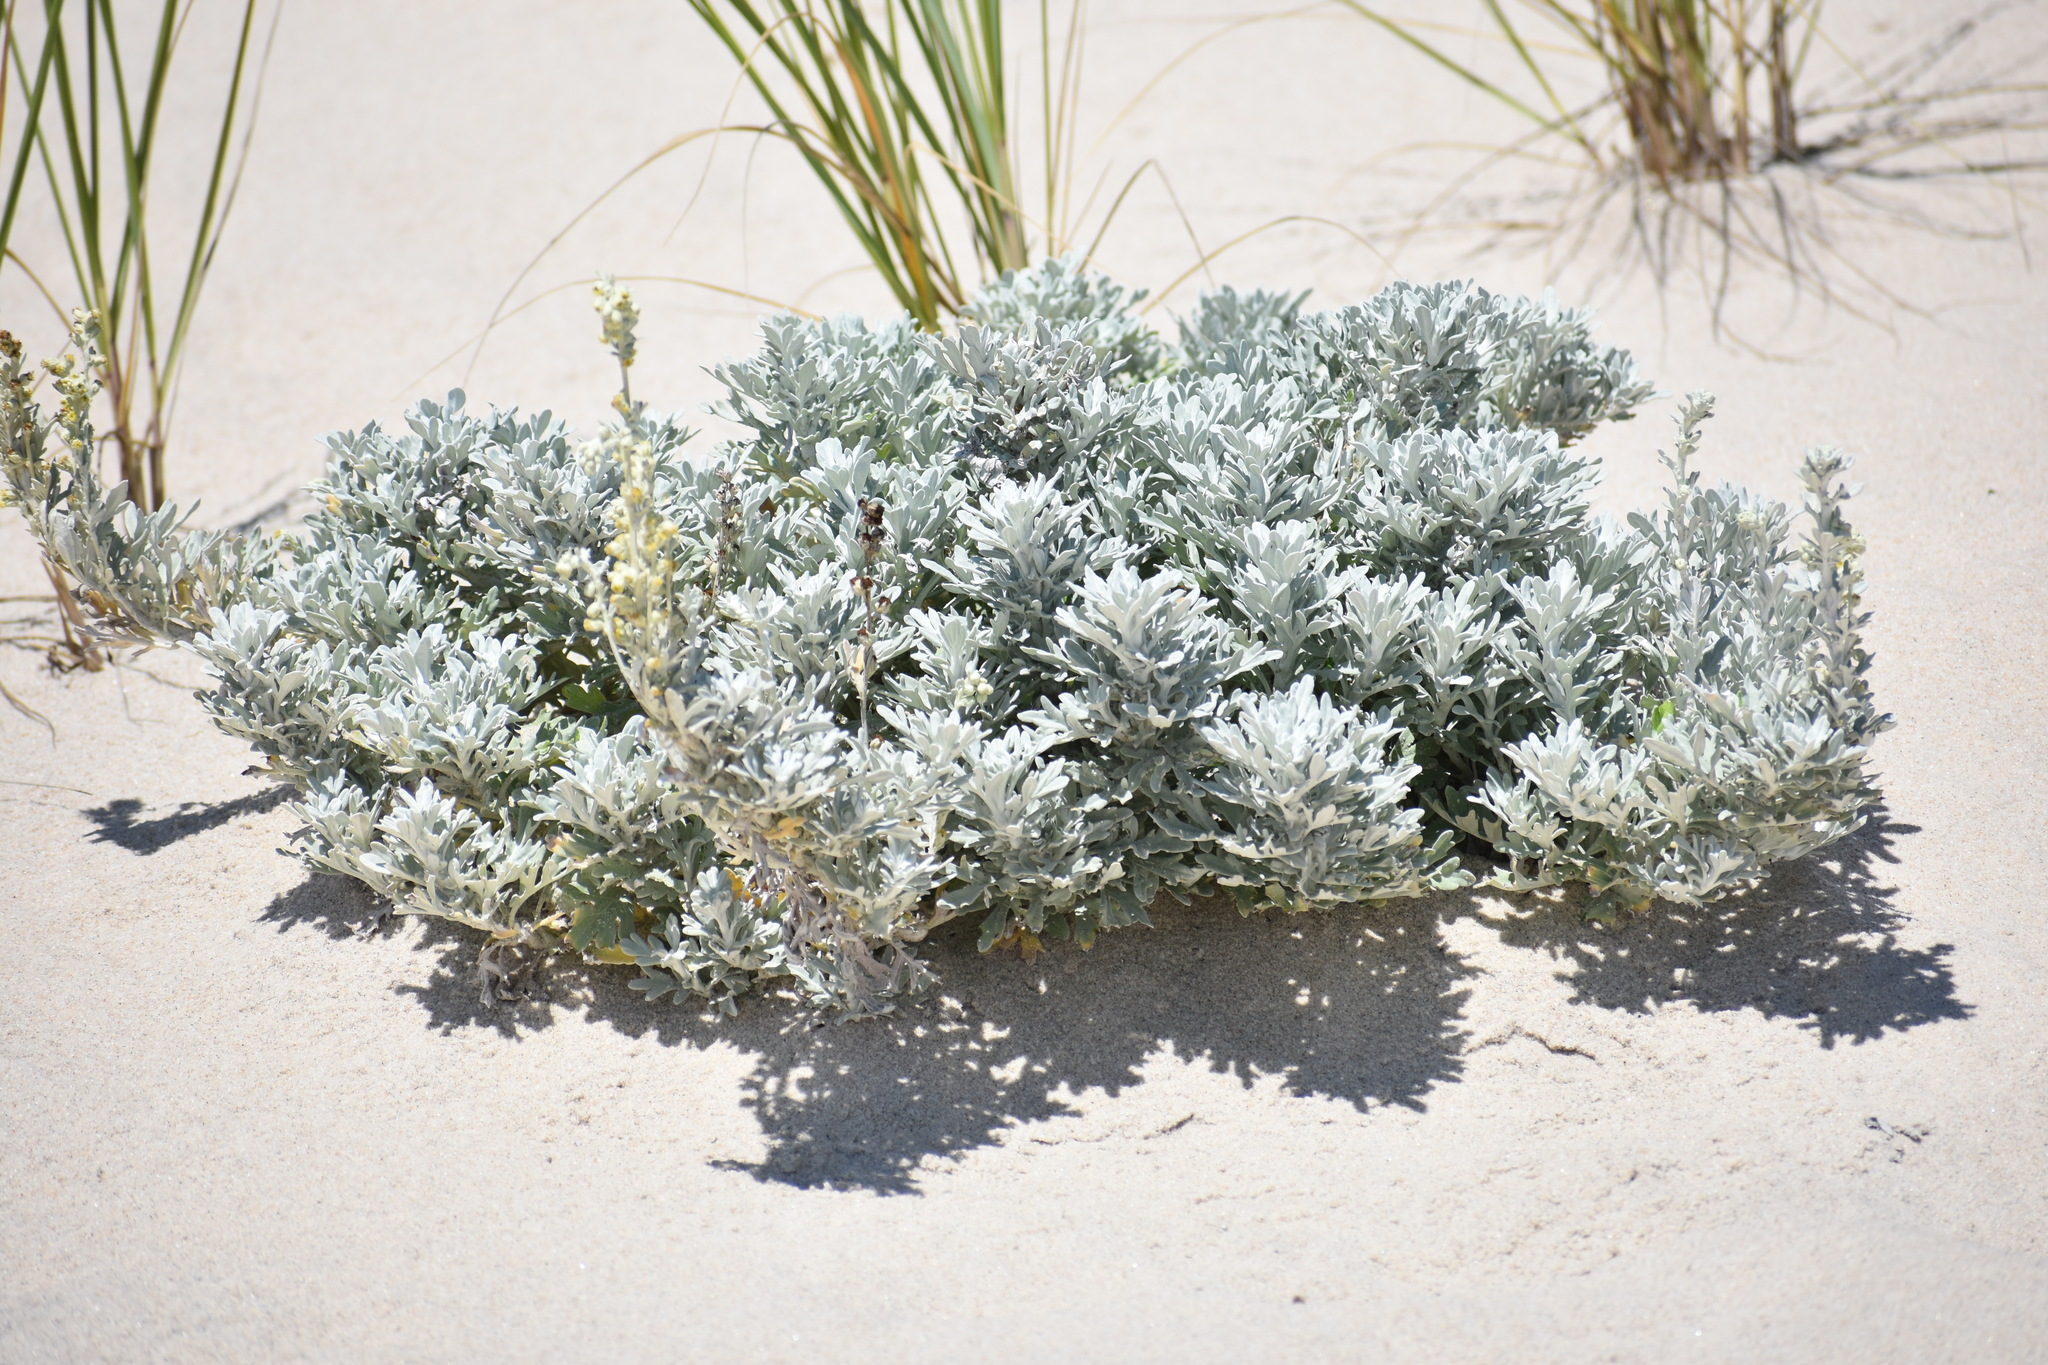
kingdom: Plantae
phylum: Tracheophyta
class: Magnoliopsida
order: Asterales
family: Asteraceae
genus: Artemisia
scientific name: Artemisia stelleriana
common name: Beach wormwood
